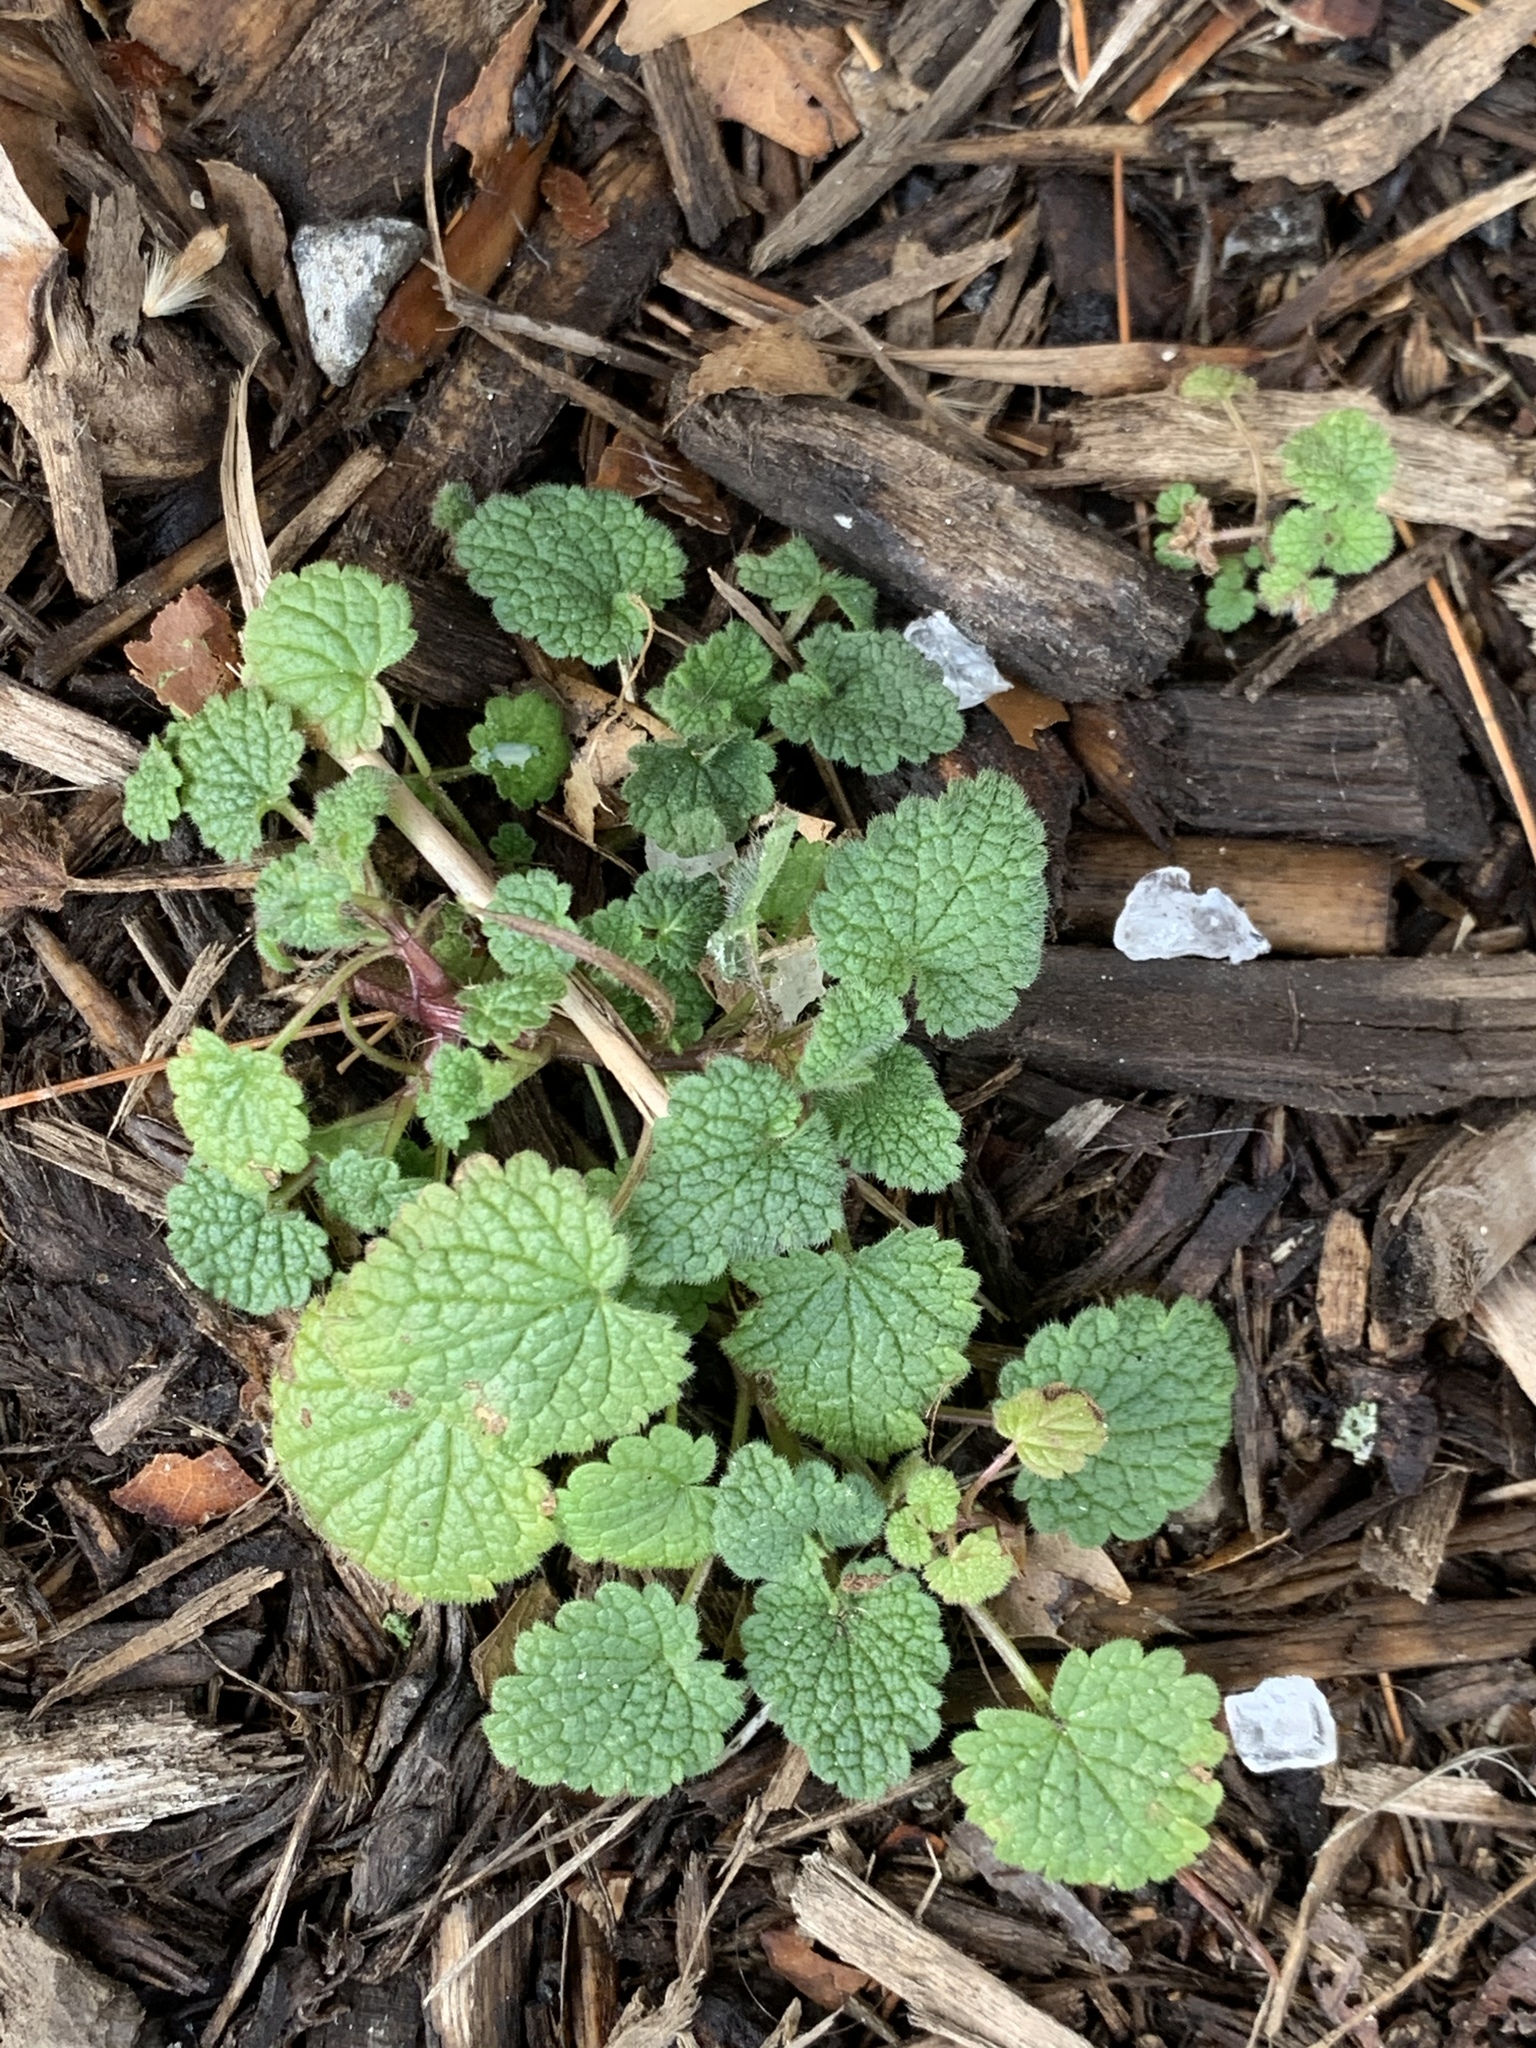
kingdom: Plantae
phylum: Tracheophyta
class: Magnoliopsida
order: Lamiales
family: Lamiaceae
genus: Lamium
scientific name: Lamium purpureum
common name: Red dead-nettle
